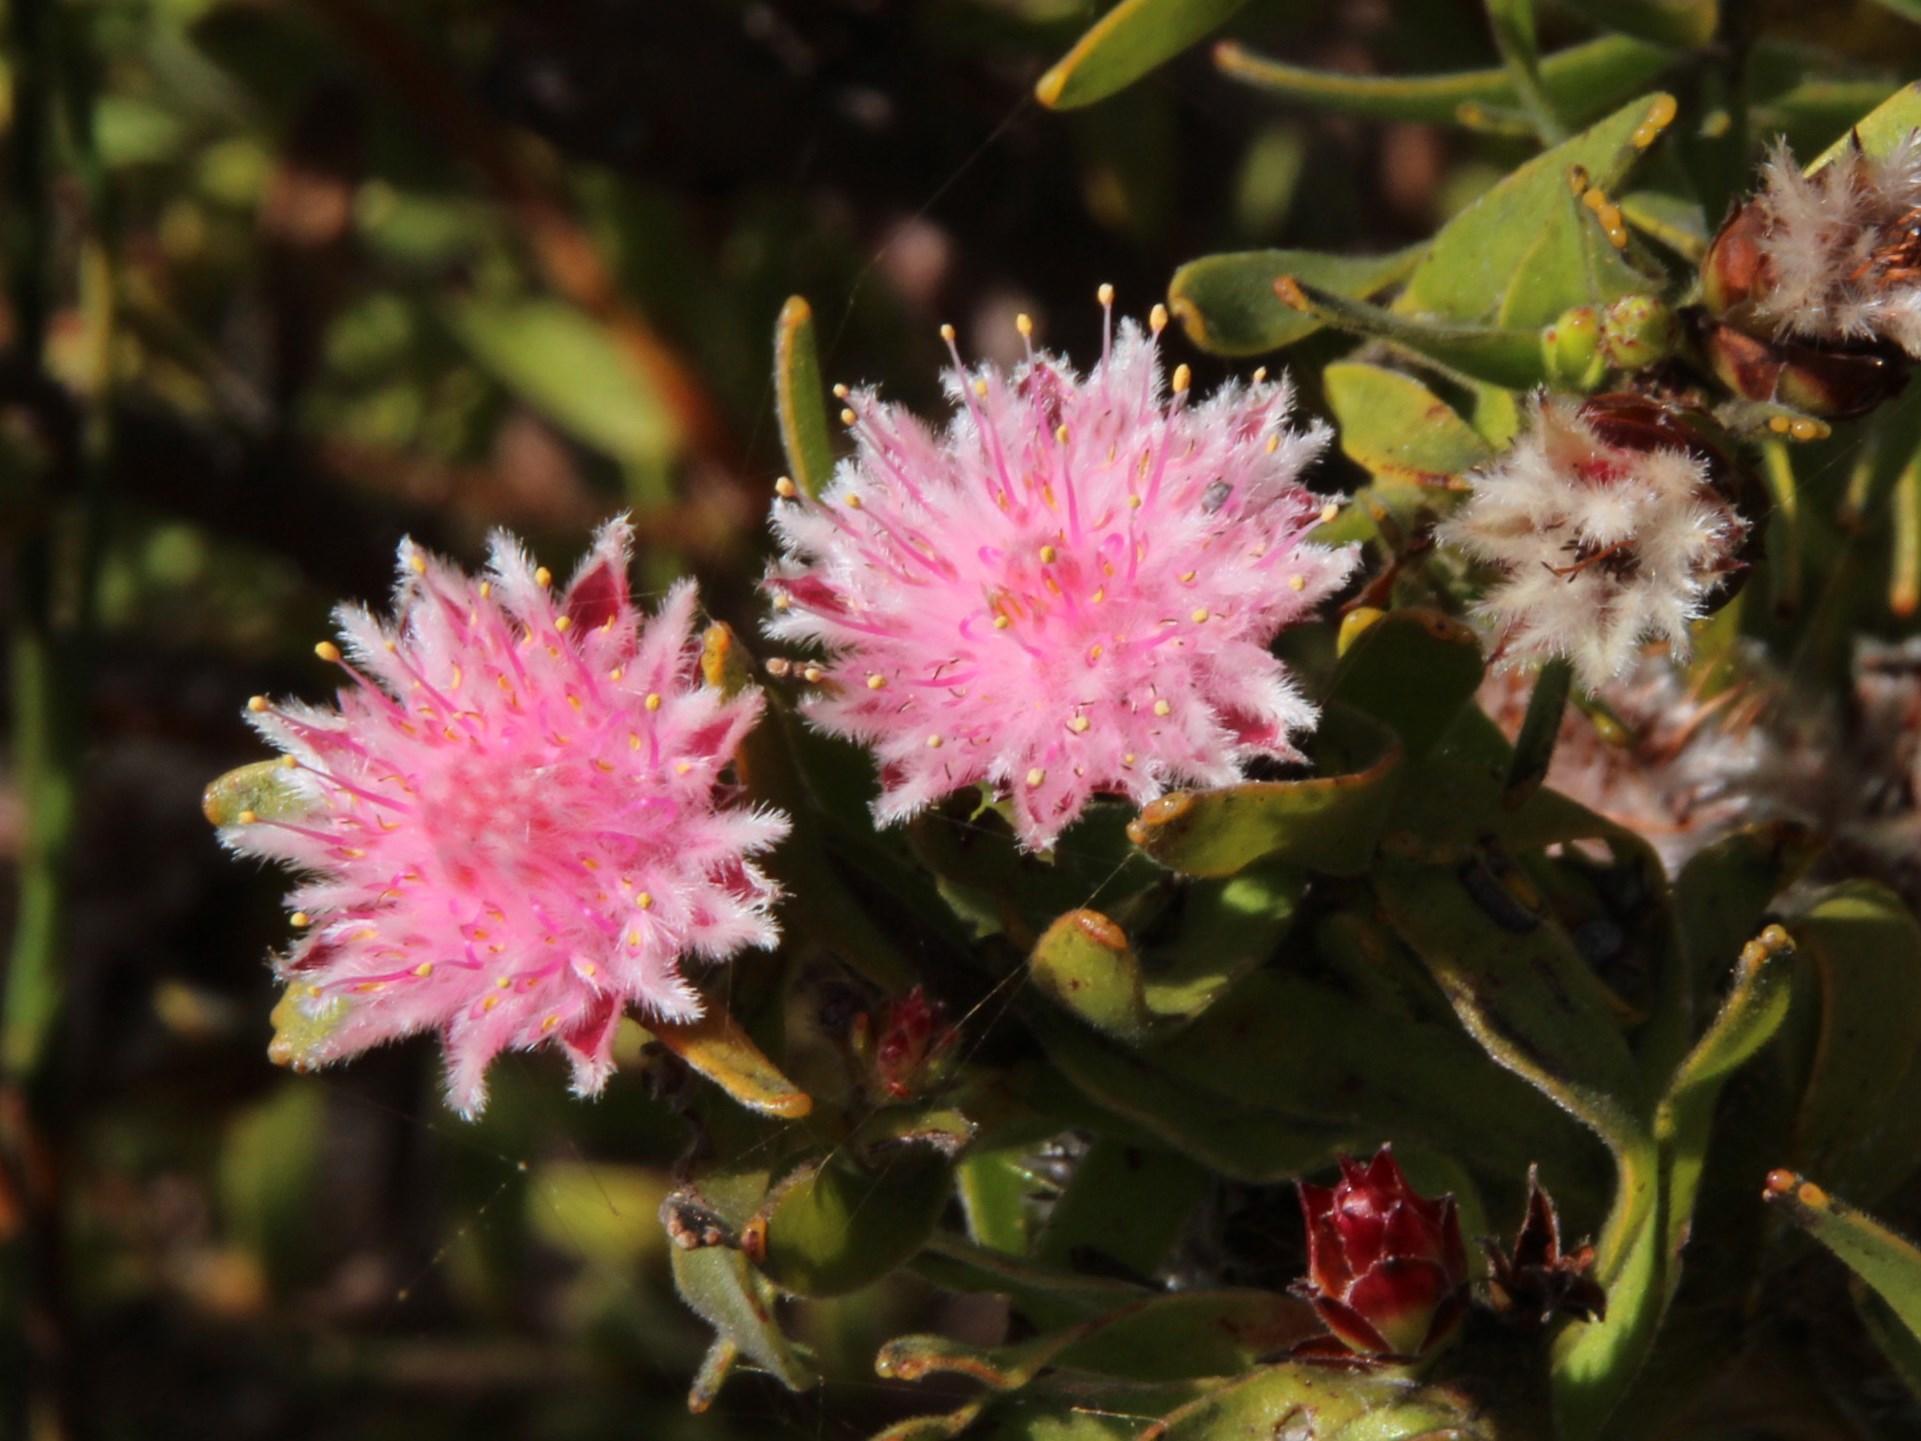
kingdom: Plantae
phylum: Tracheophyta
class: Magnoliopsida
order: Proteales
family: Proteaceae
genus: Diastella
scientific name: Diastella parilis
